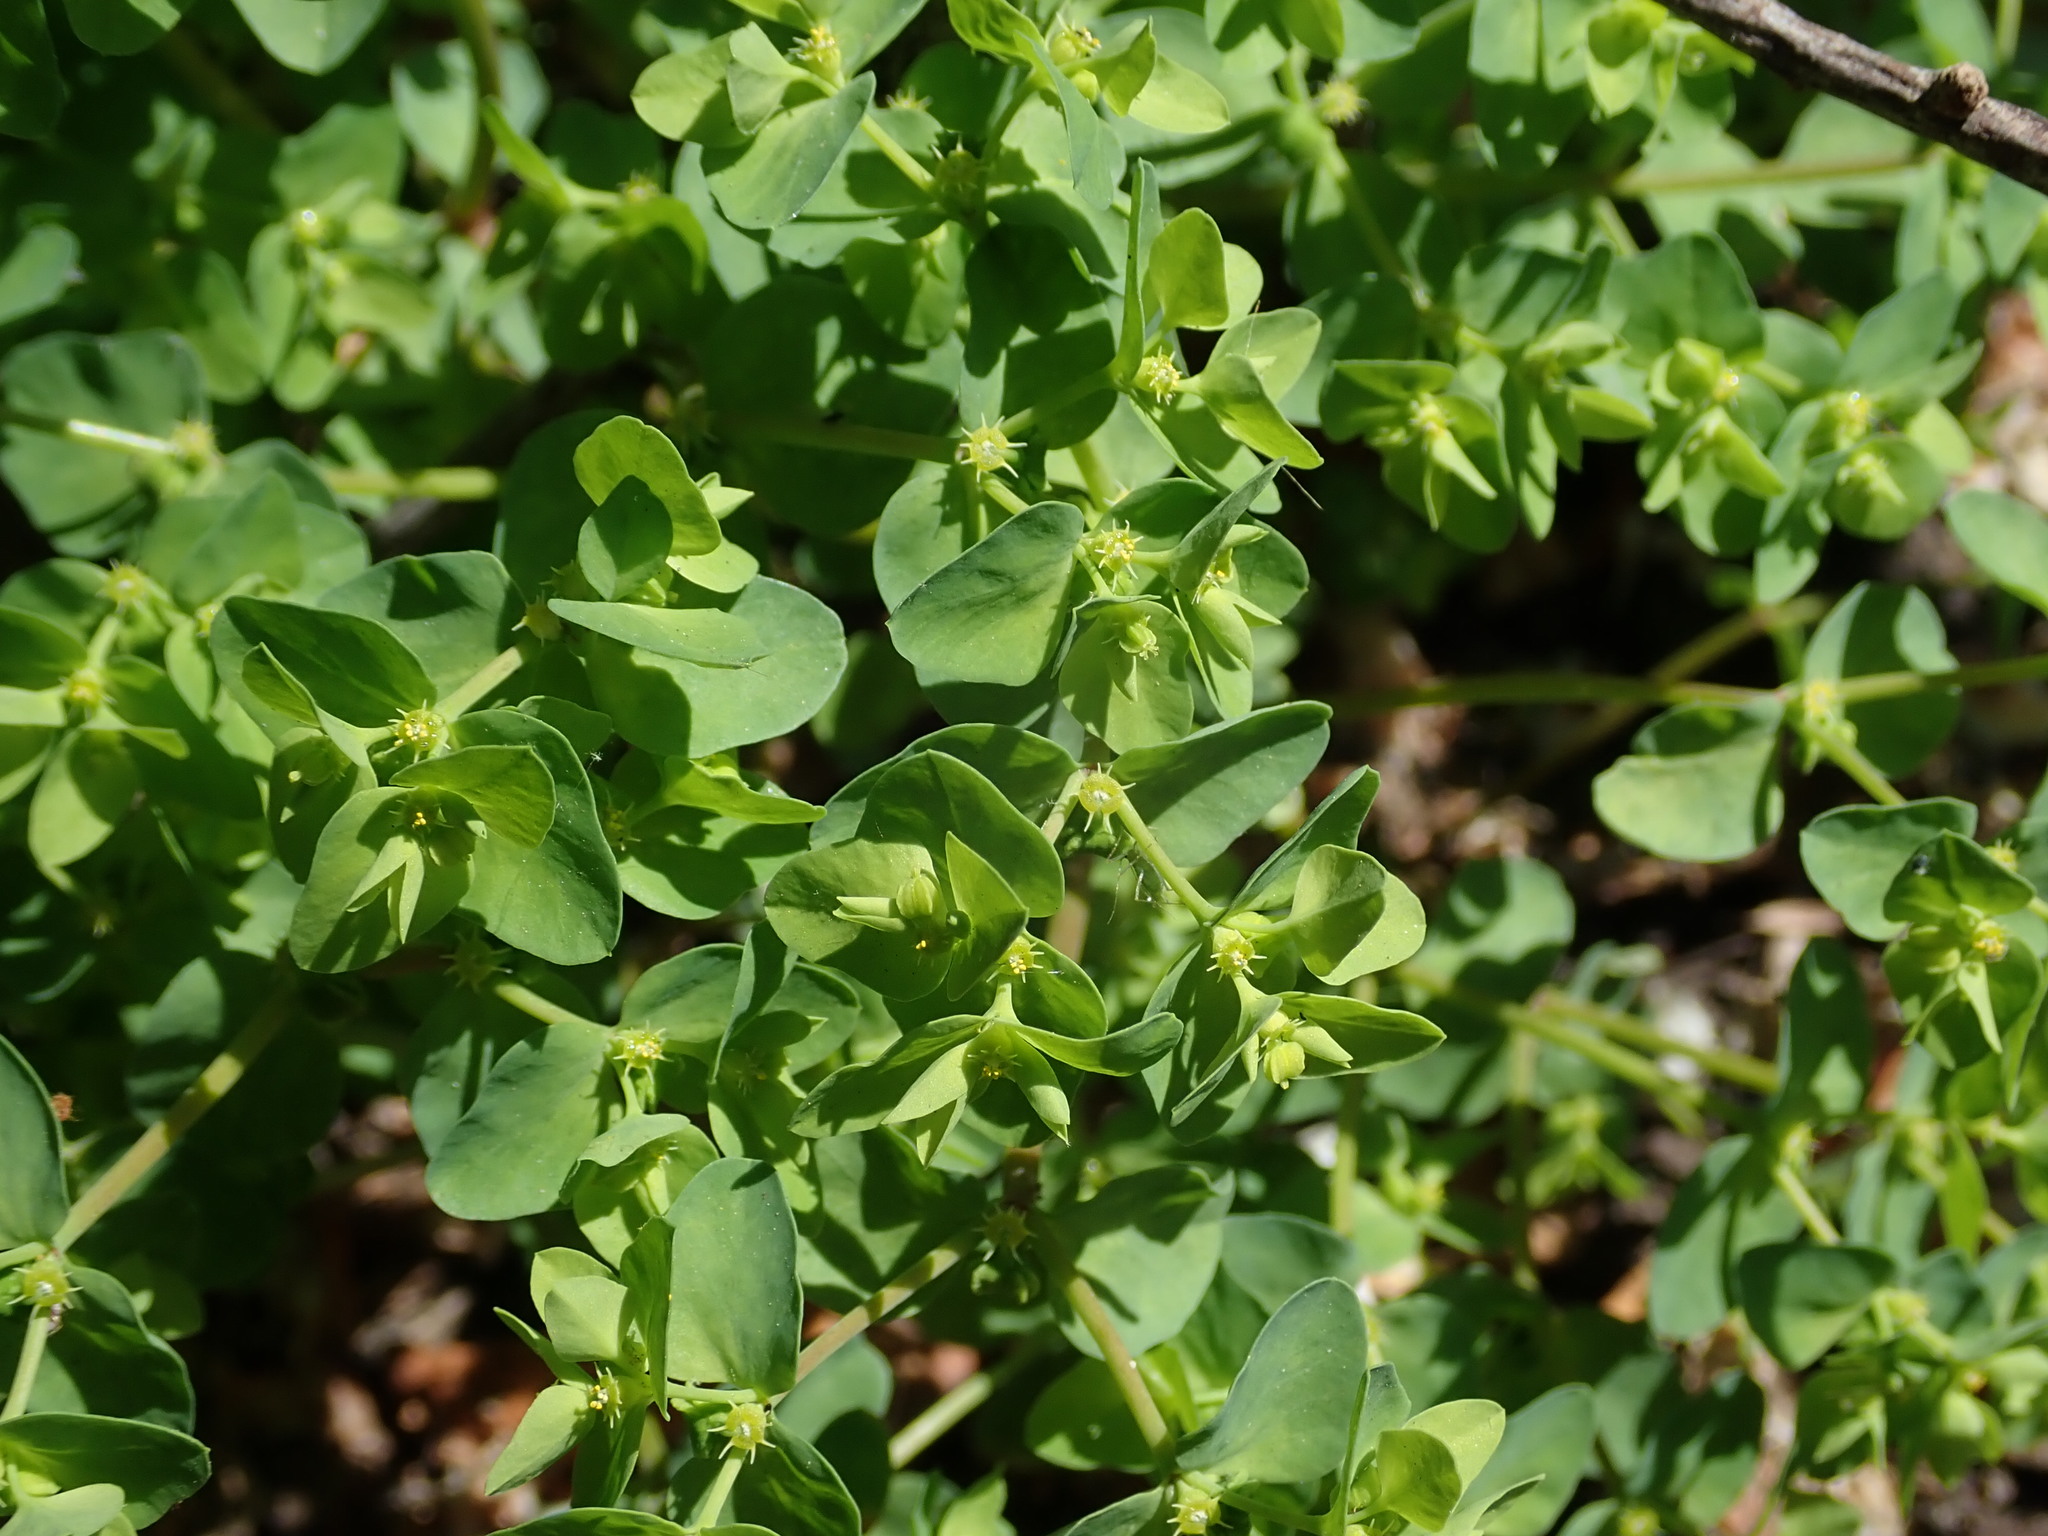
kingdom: Plantae
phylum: Tracheophyta
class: Magnoliopsida
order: Malpighiales
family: Euphorbiaceae
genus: Euphorbia
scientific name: Euphorbia peplus
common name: Petty spurge
